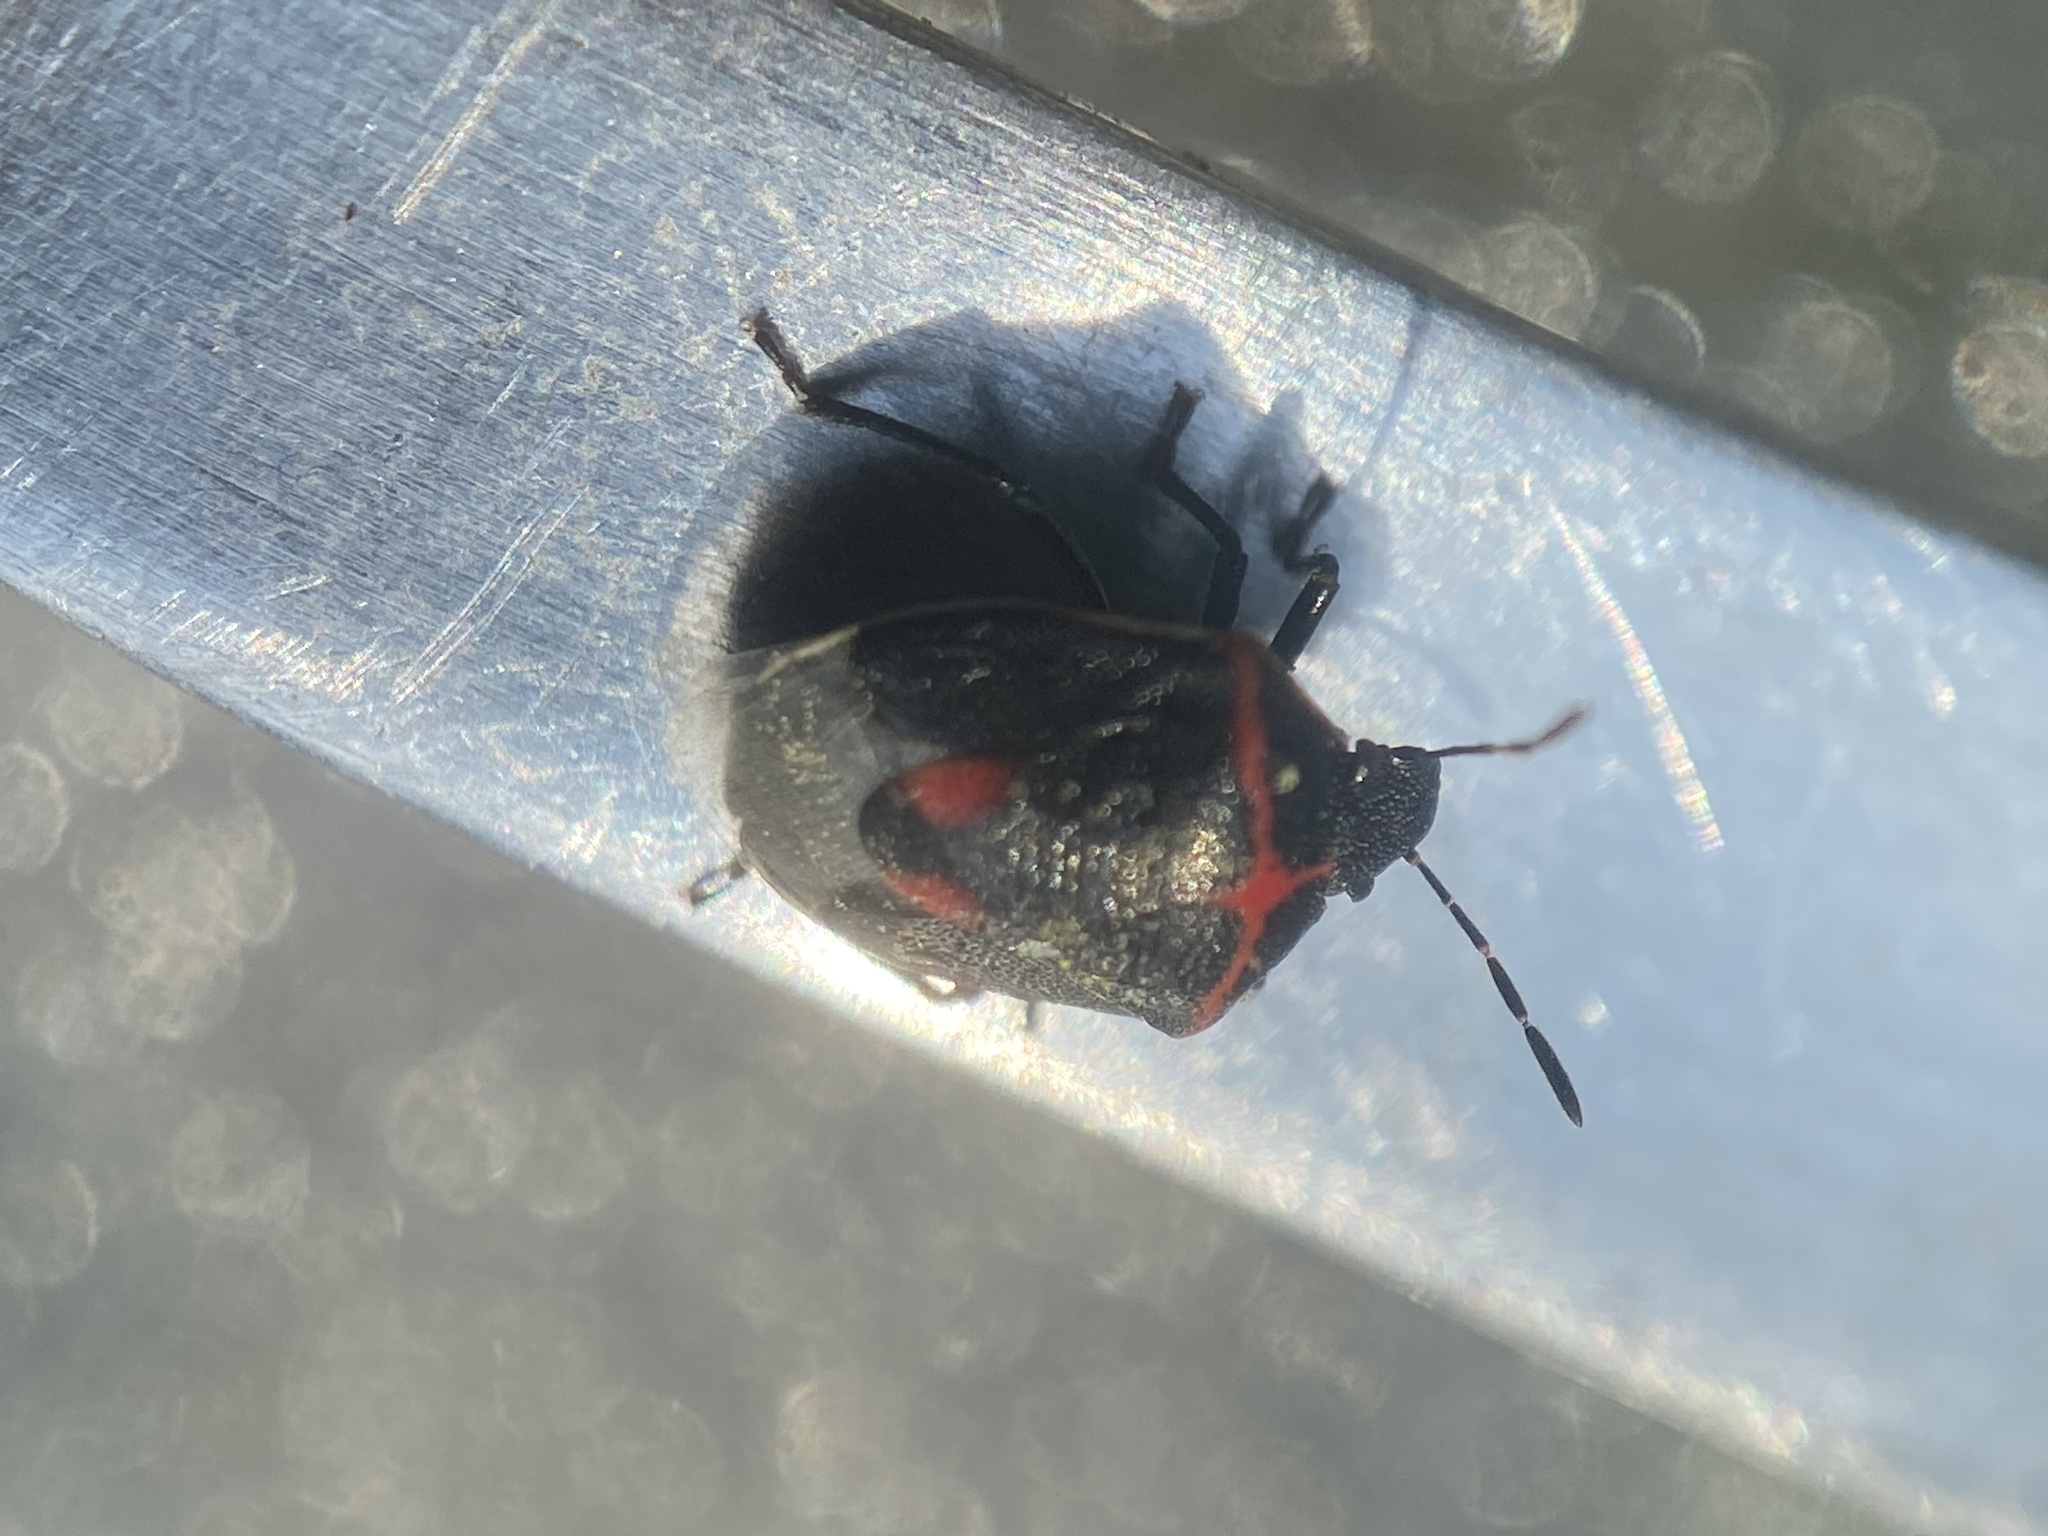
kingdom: Animalia
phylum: Arthropoda
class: Insecta
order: Hemiptera
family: Pentatomidae
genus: Cosmopepla
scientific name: Cosmopepla lintneriana
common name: Twice-stabbed stink bug
